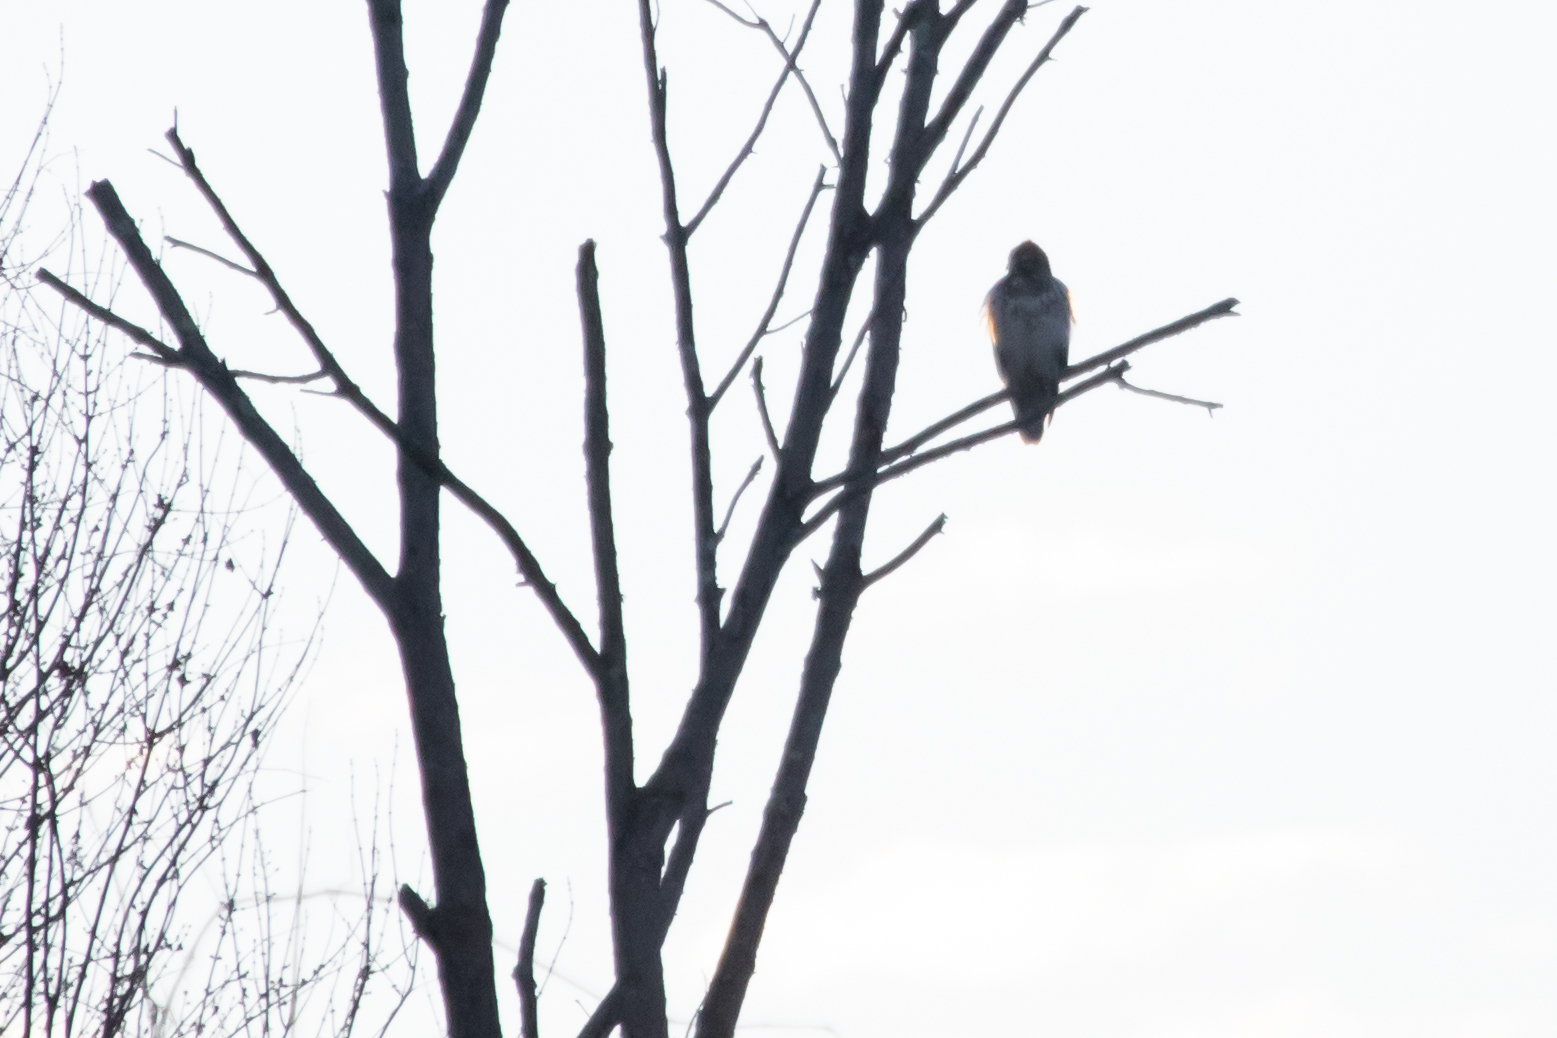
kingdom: Animalia
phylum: Chordata
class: Aves
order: Accipitriformes
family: Accipitridae
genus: Buteo
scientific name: Buteo jamaicensis
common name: Red-tailed hawk
